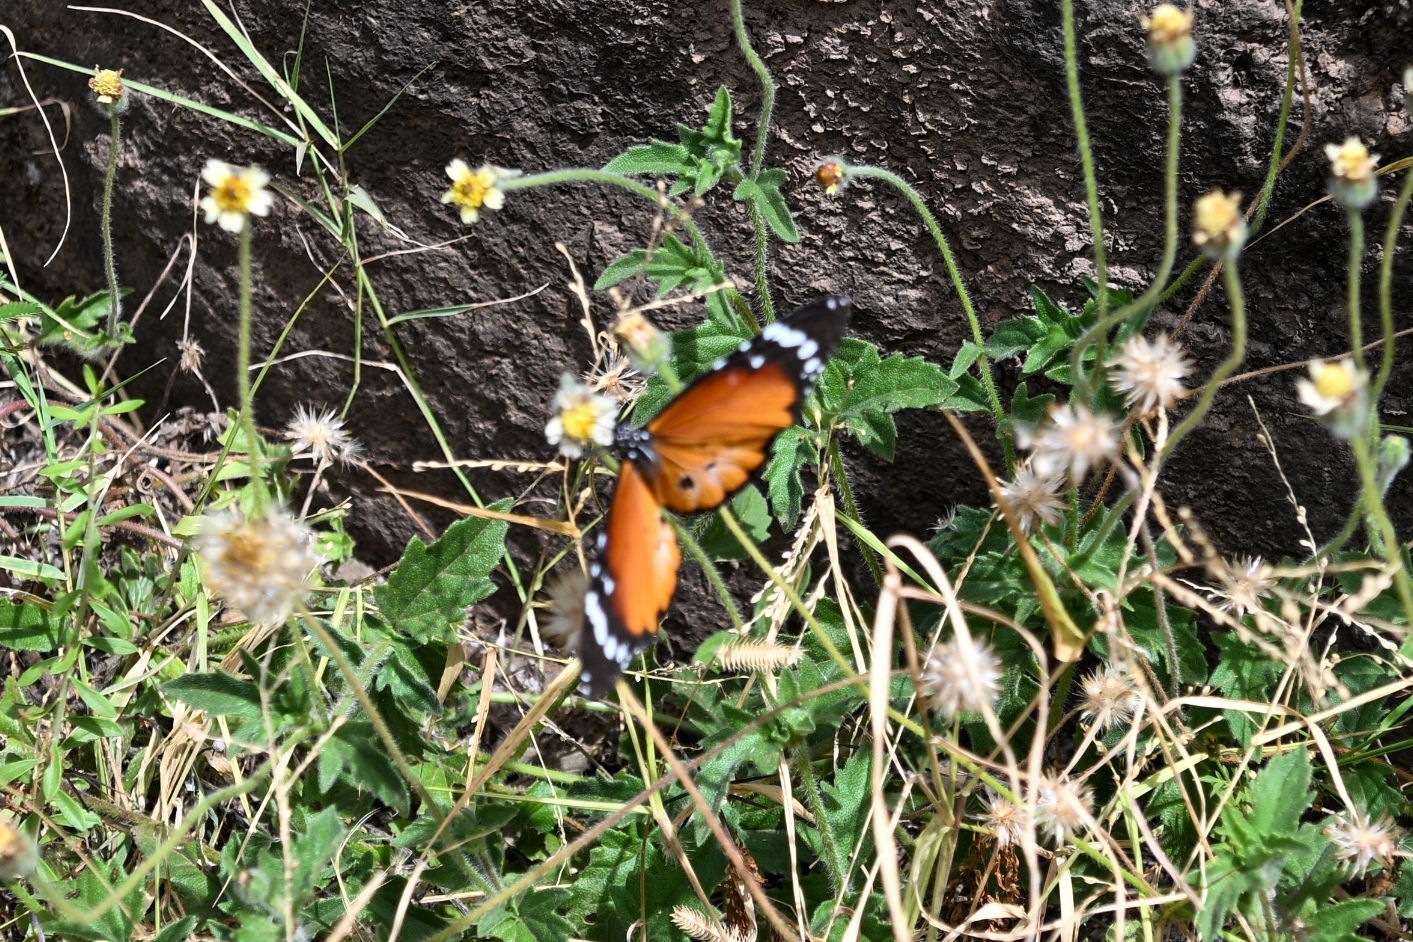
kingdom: Animalia
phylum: Arthropoda
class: Insecta
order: Lepidoptera
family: Nymphalidae
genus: Danaus
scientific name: Danaus chrysippus
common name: Plain tiger
